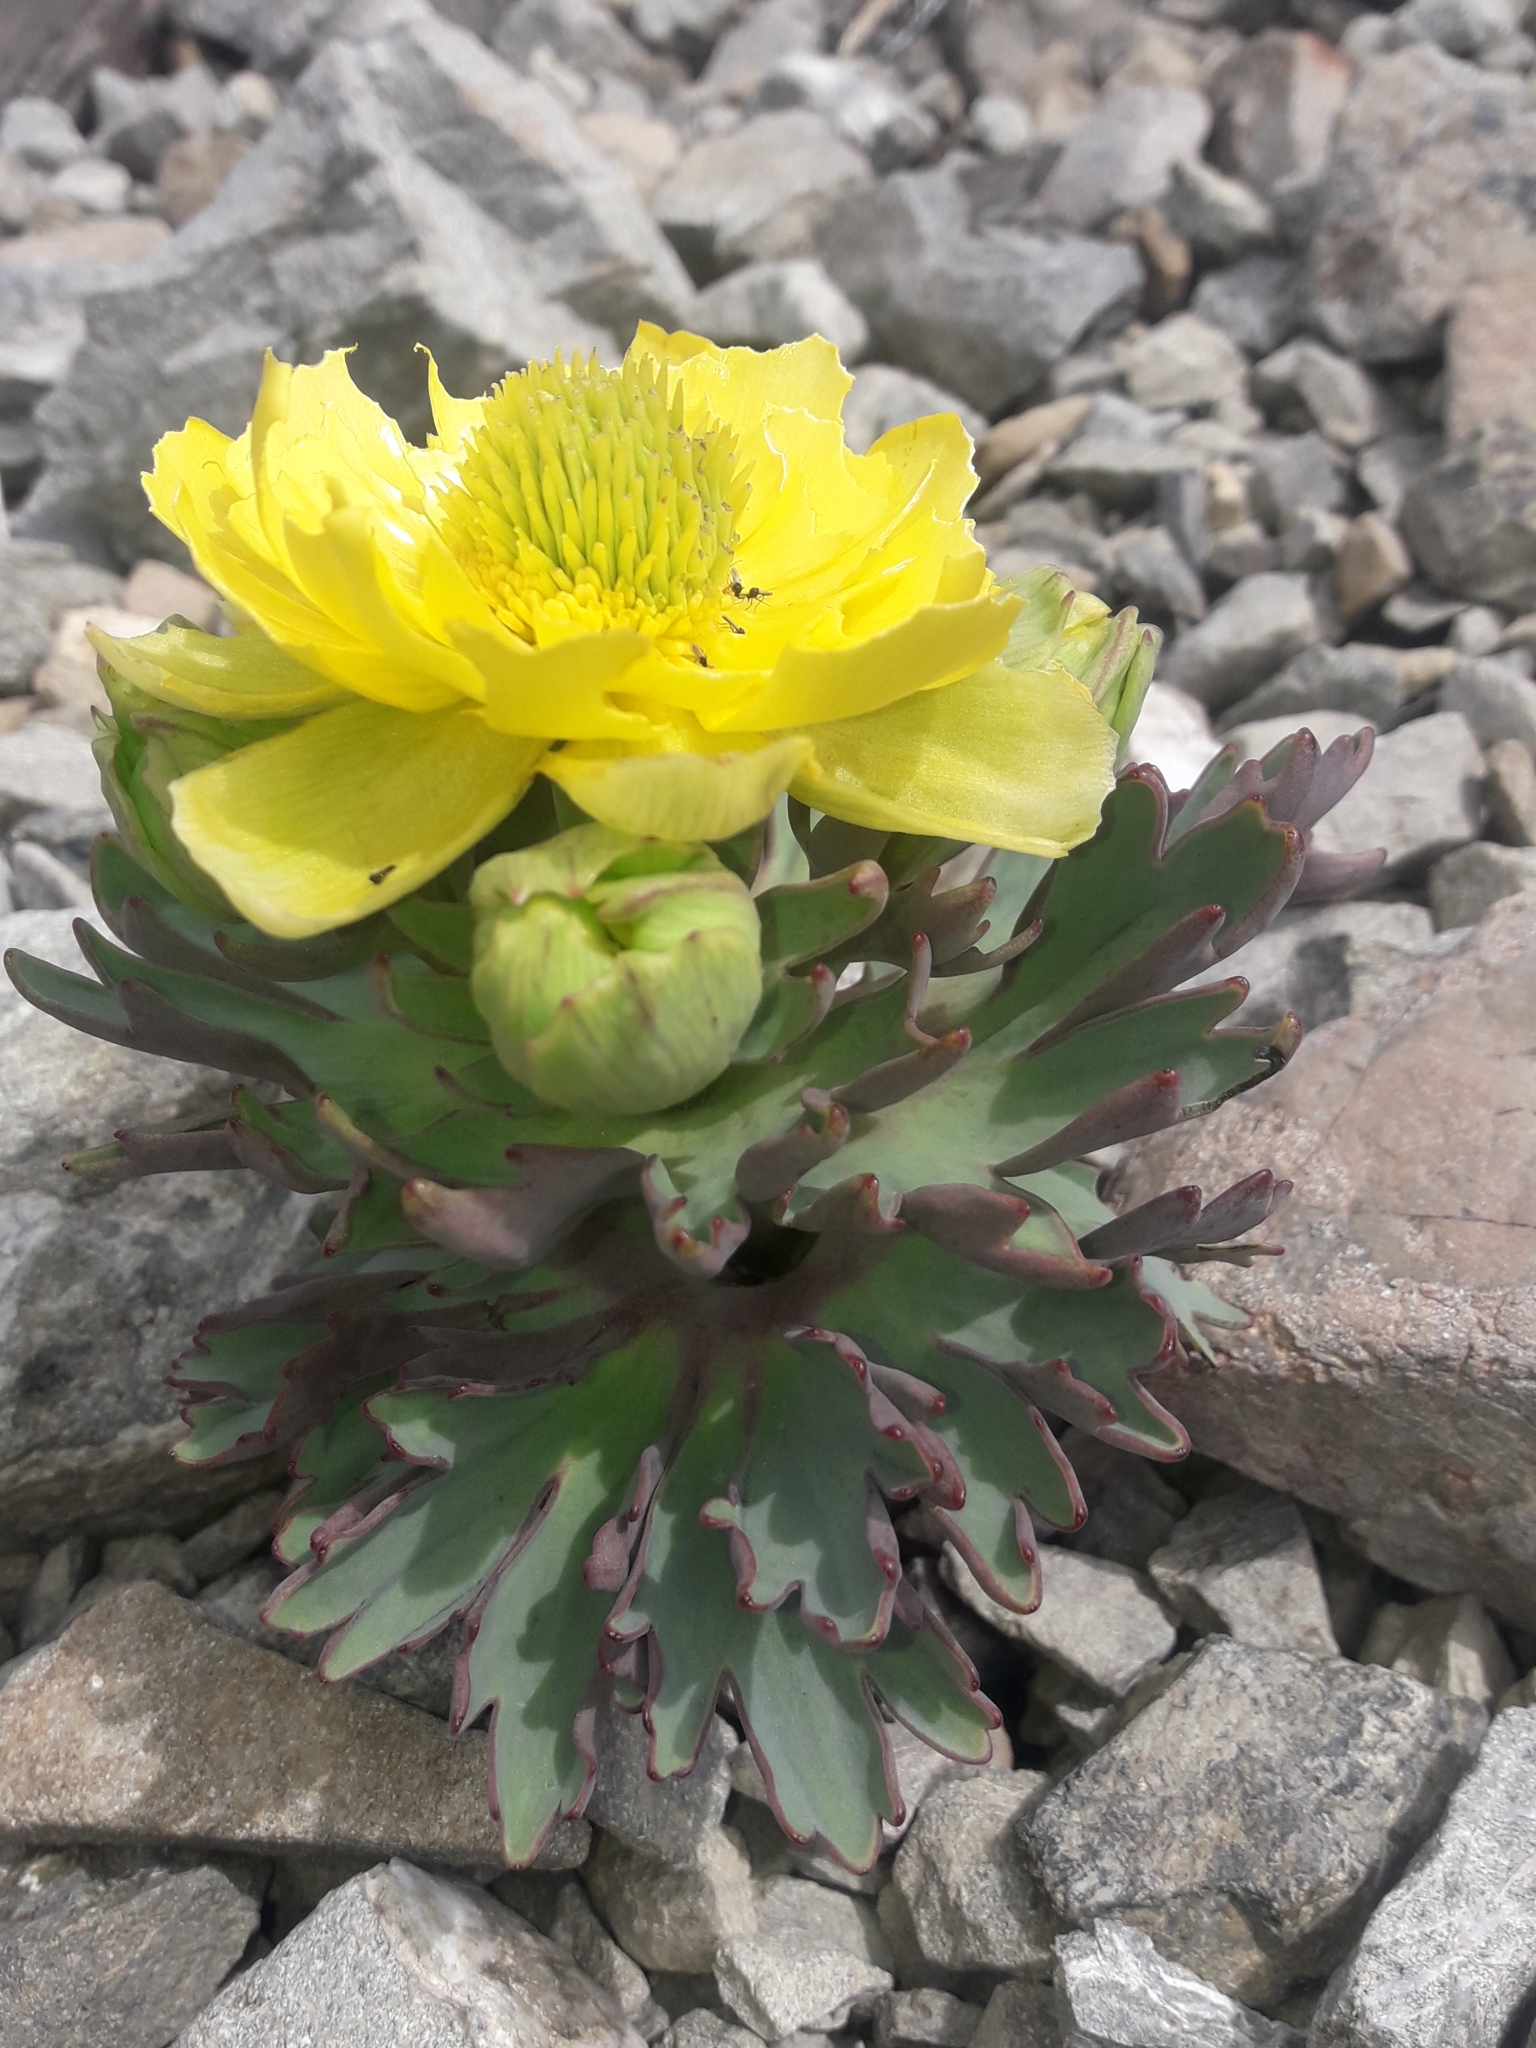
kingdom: Plantae
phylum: Tracheophyta
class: Magnoliopsida
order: Ranunculales
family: Ranunculaceae
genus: Ranunculus
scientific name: Ranunculus acraeus
